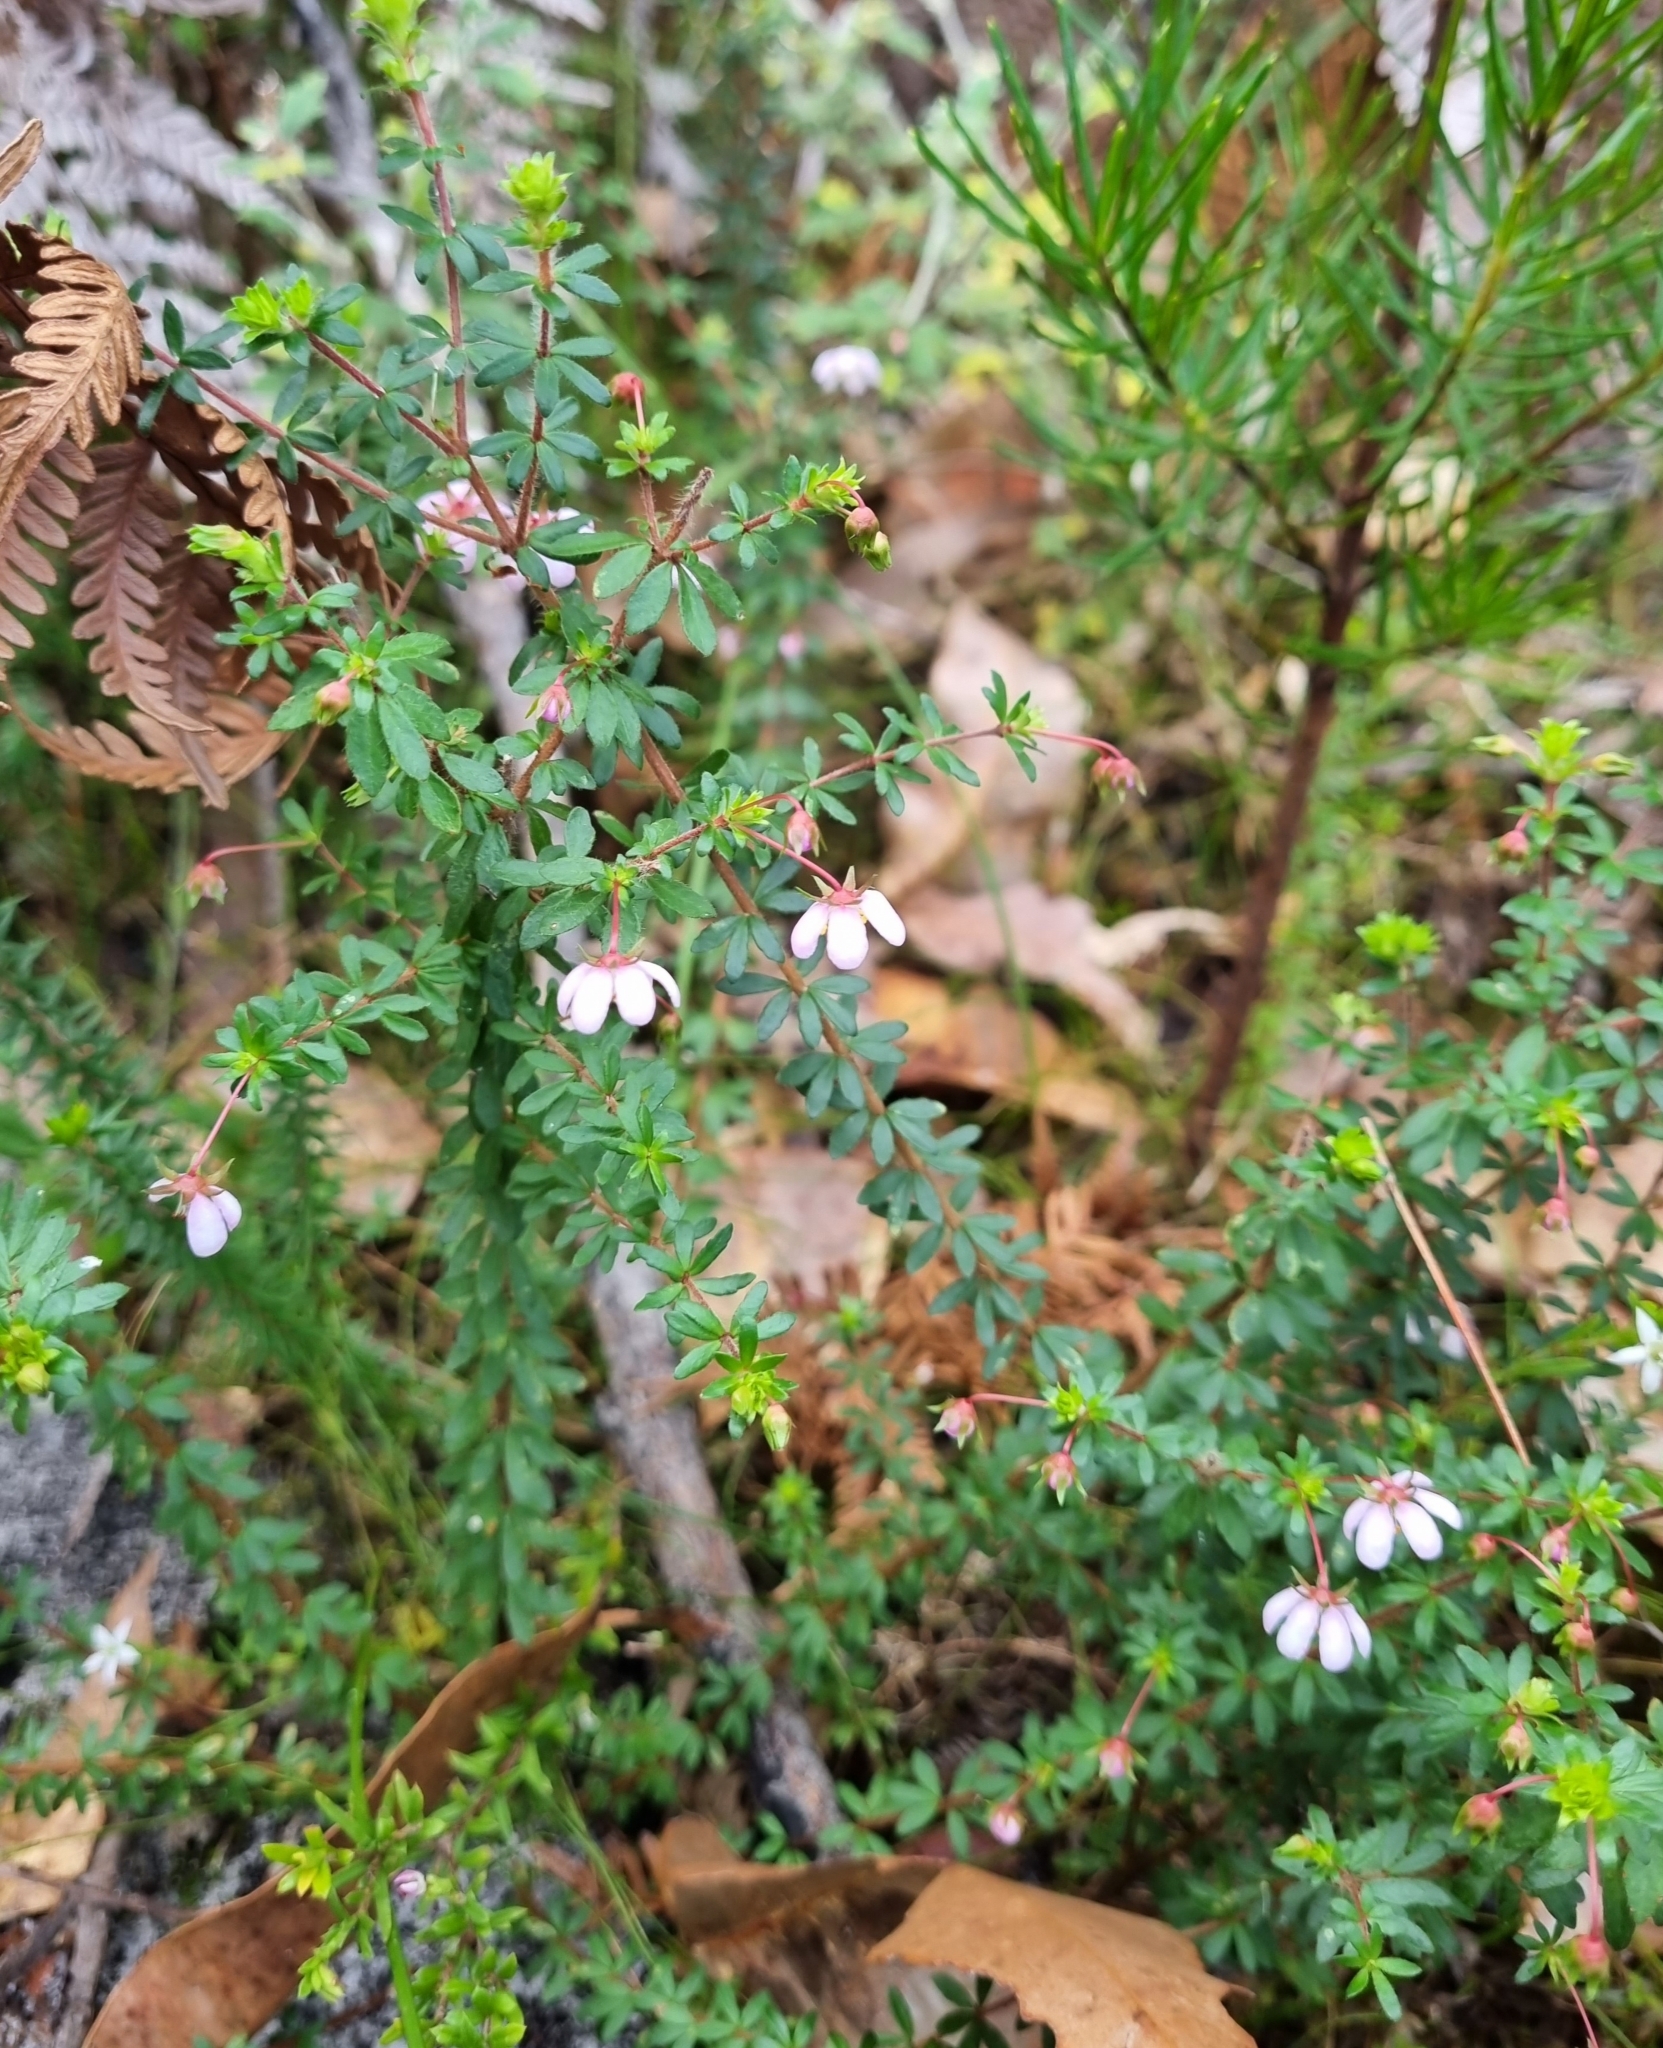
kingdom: Plantae
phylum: Tracheophyta
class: Magnoliopsida
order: Oxalidales
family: Cunoniaceae
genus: Bauera
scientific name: Bauera rubioides
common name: River-rose
